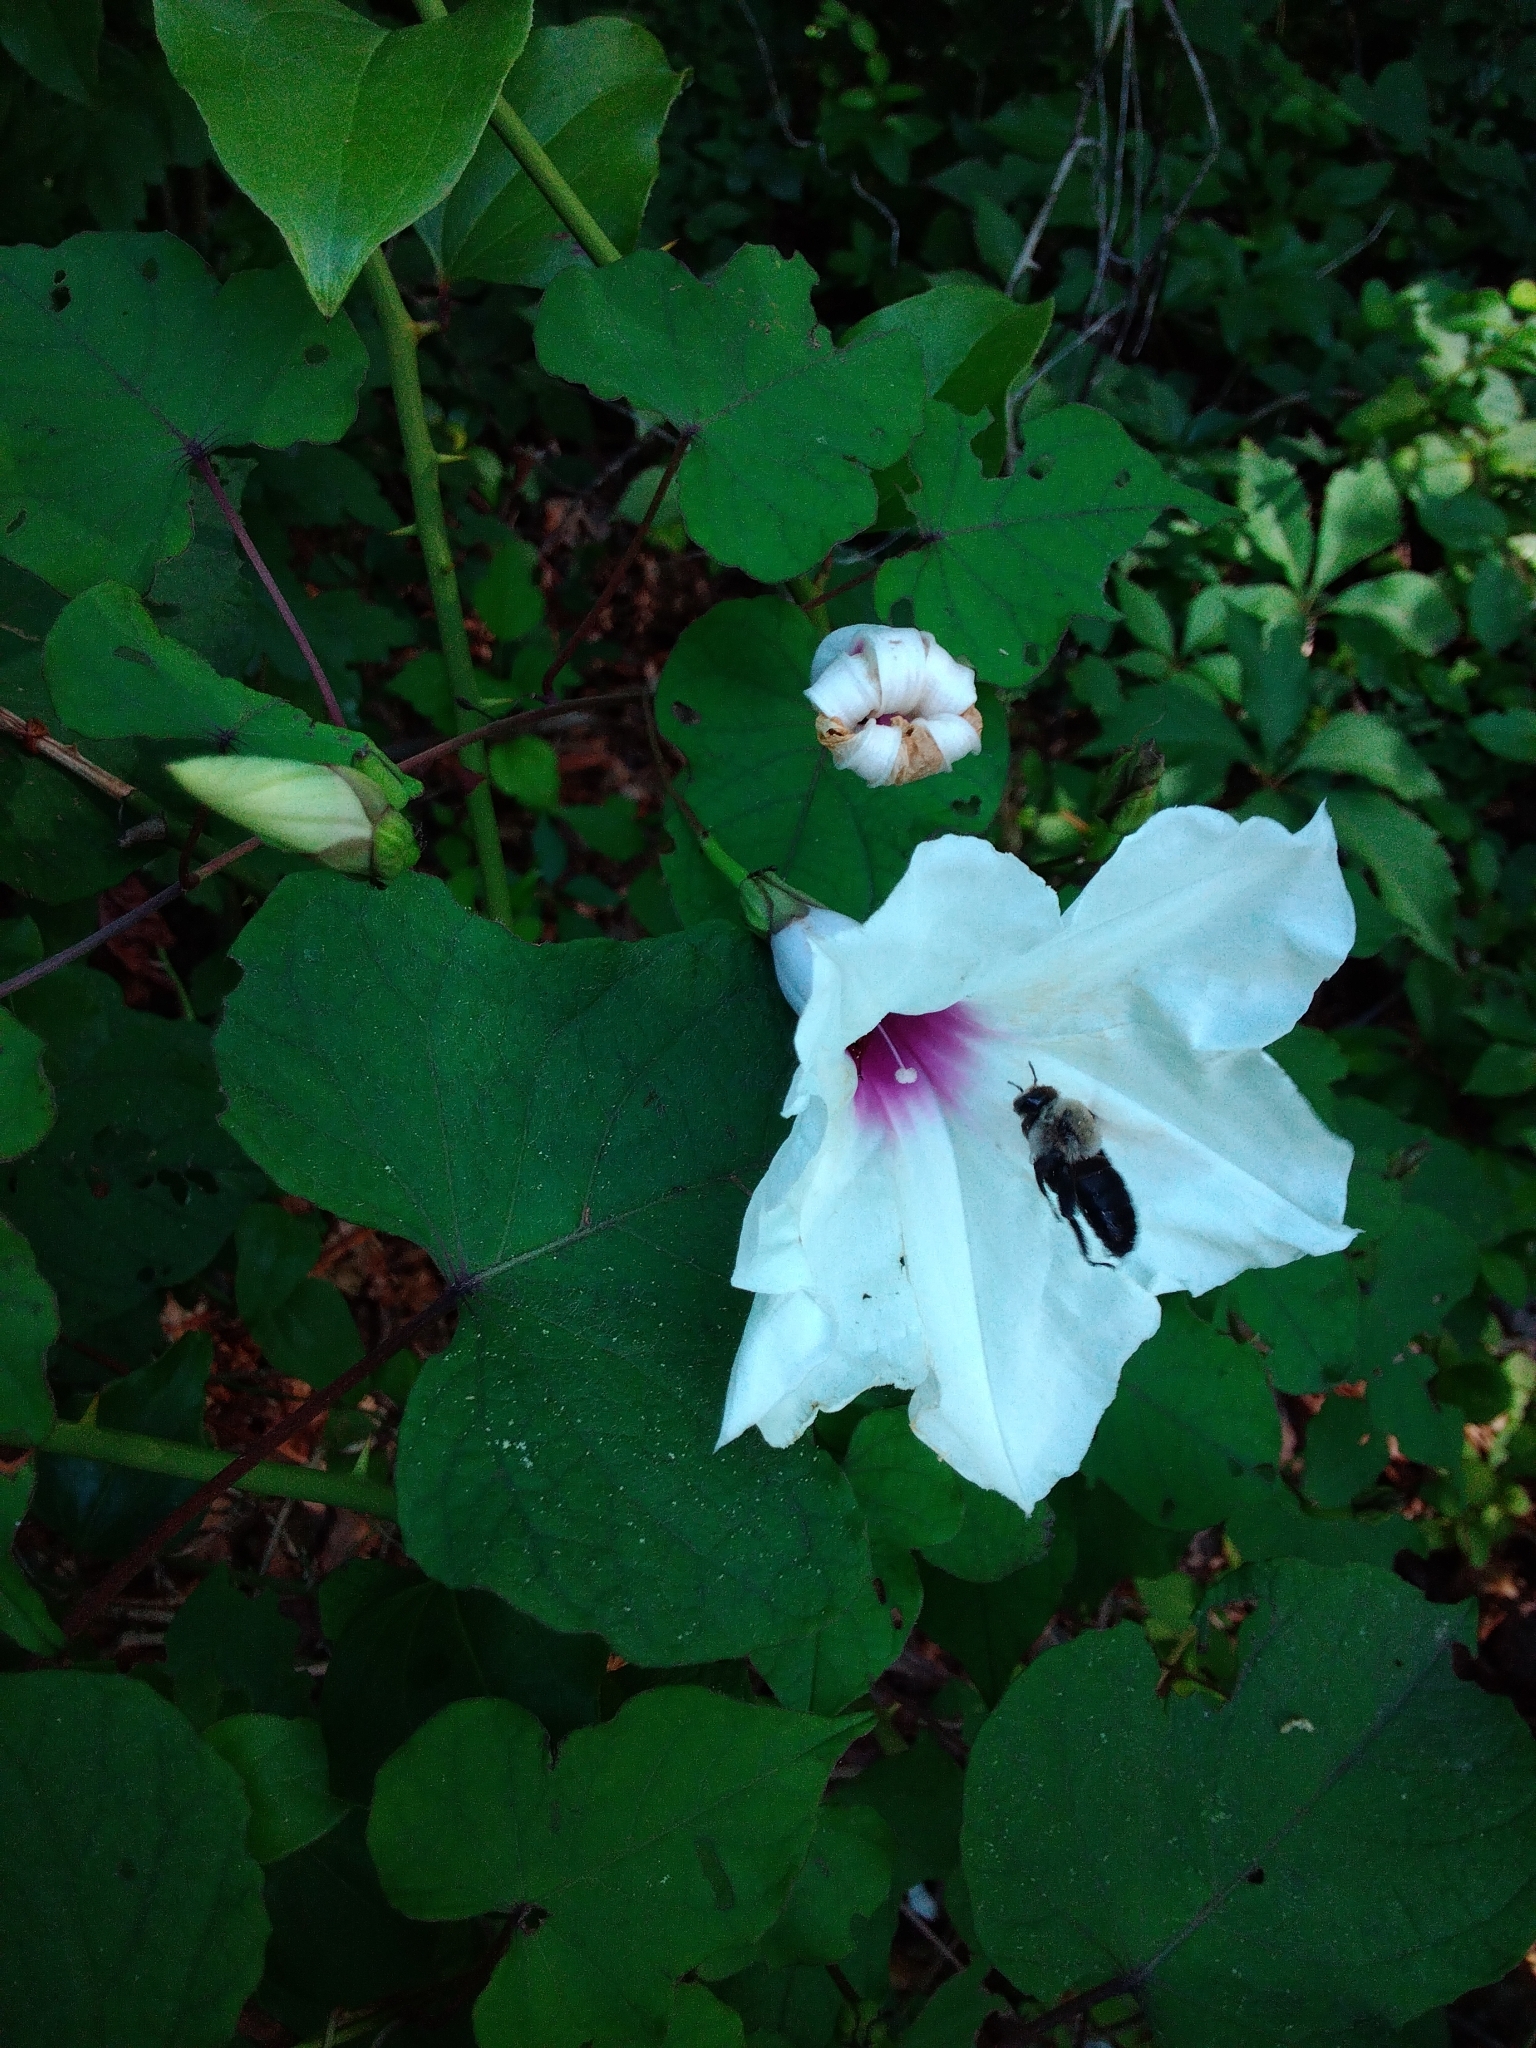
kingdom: Animalia
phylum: Arthropoda
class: Insecta
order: Hymenoptera
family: Apidae
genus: Ptilothrix
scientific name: Ptilothrix bombiformis
